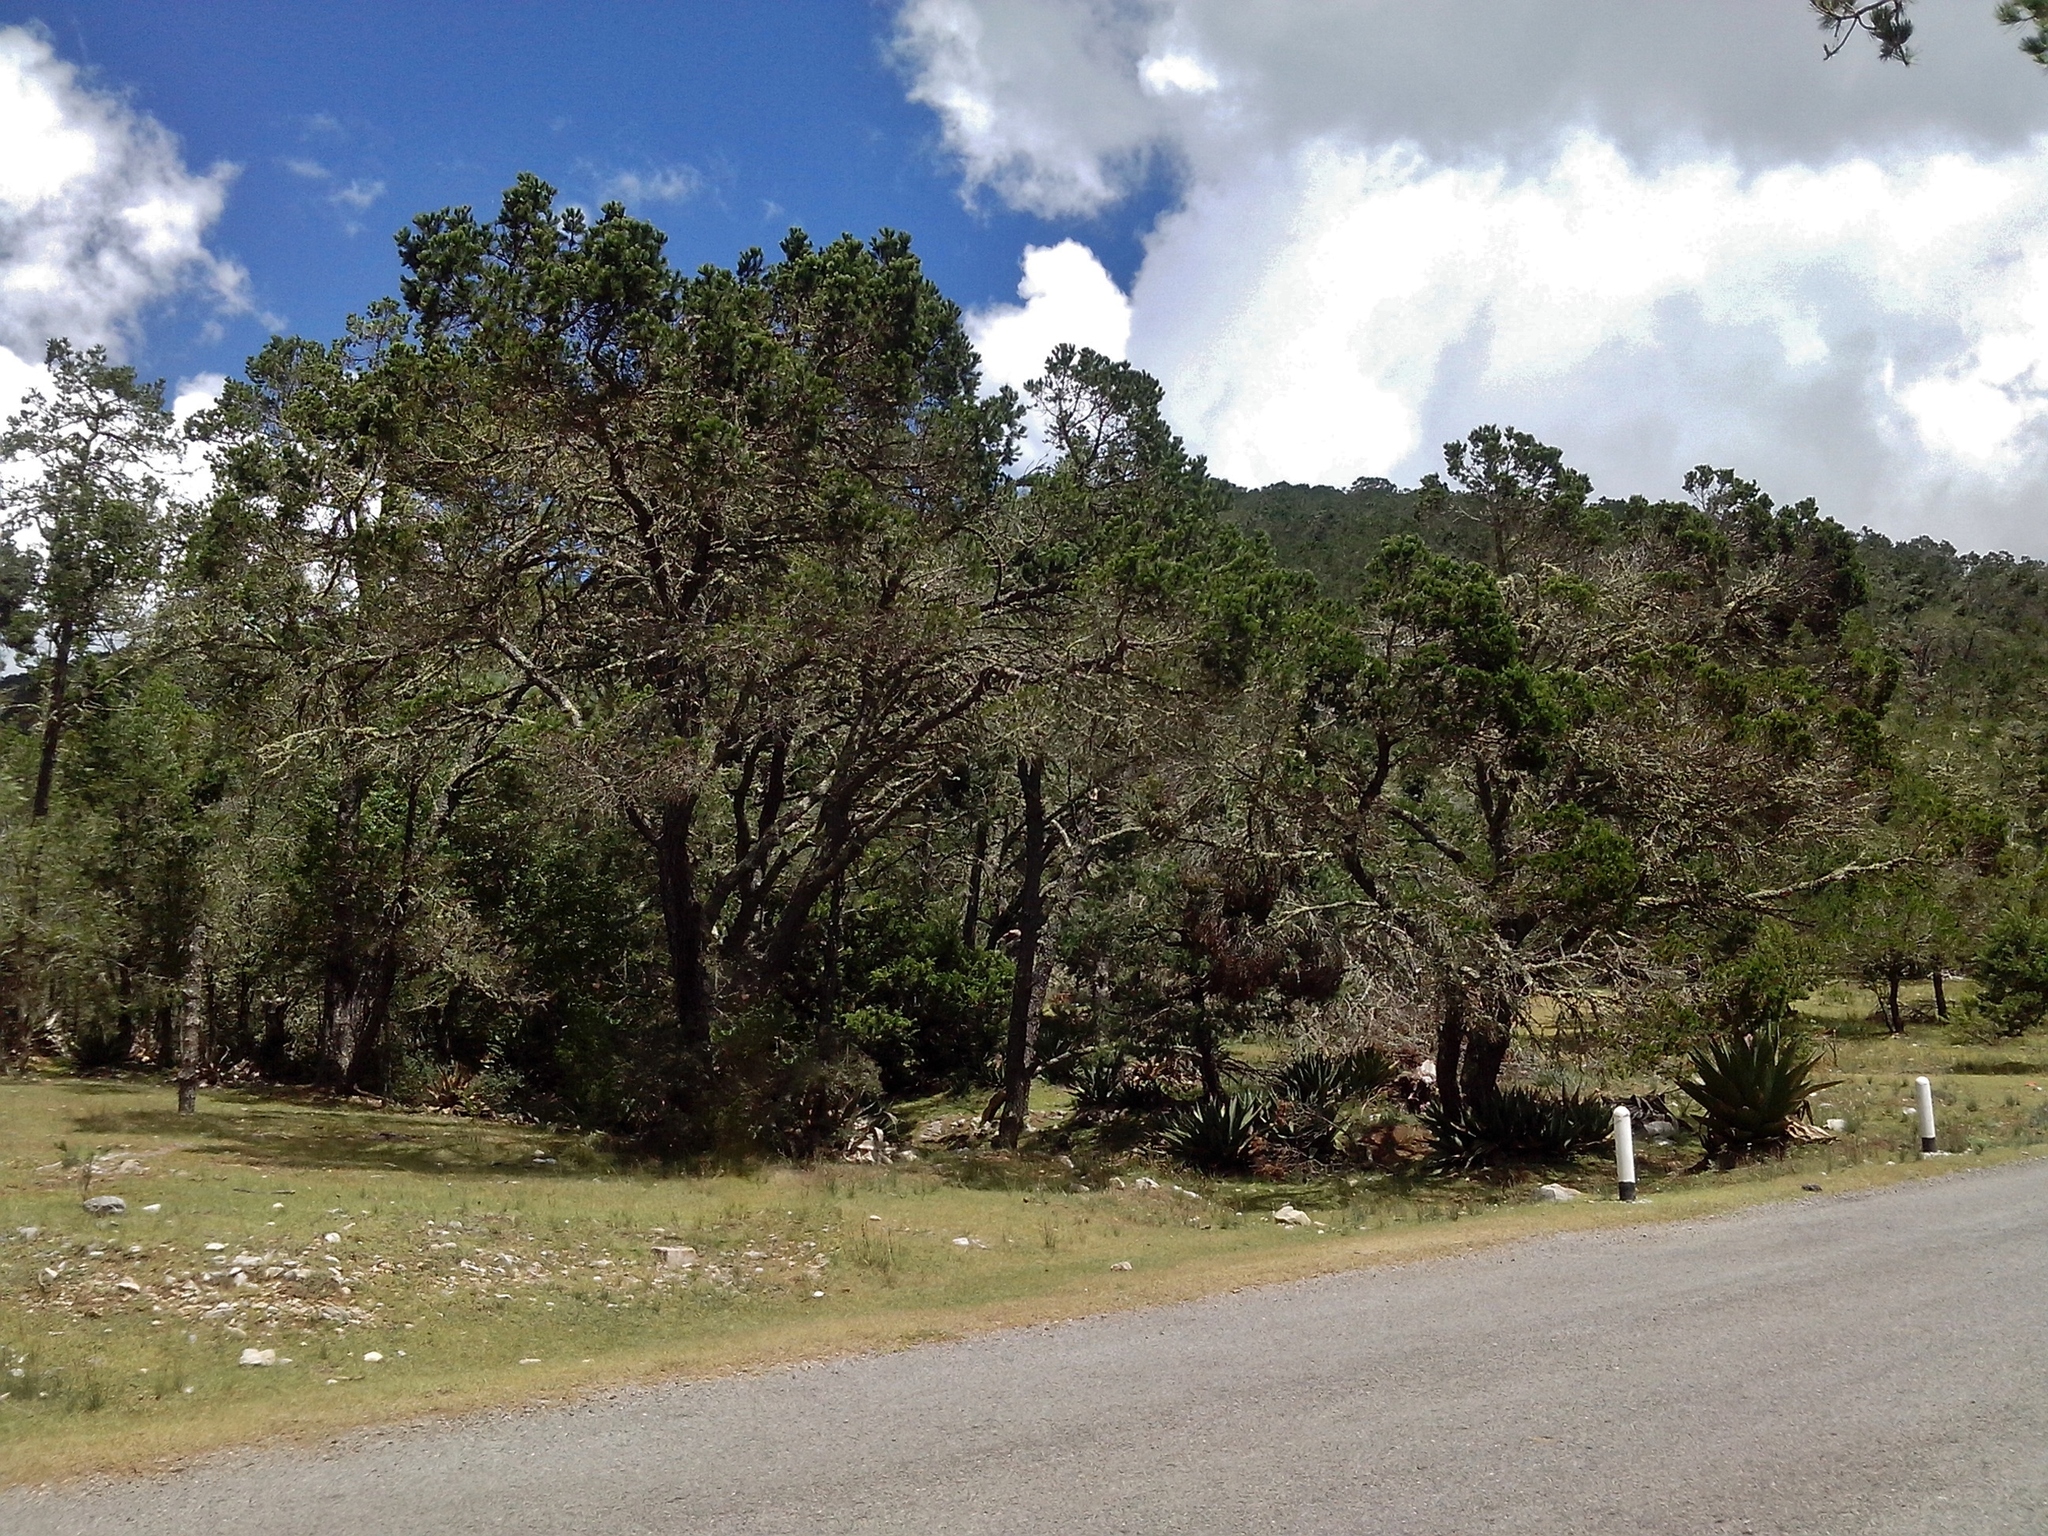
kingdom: Plantae
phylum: Tracheophyta
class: Pinopsida
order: Pinales
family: Pinaceae
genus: Pinus
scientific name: Pinus cembroides
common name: Mexican nut pine
